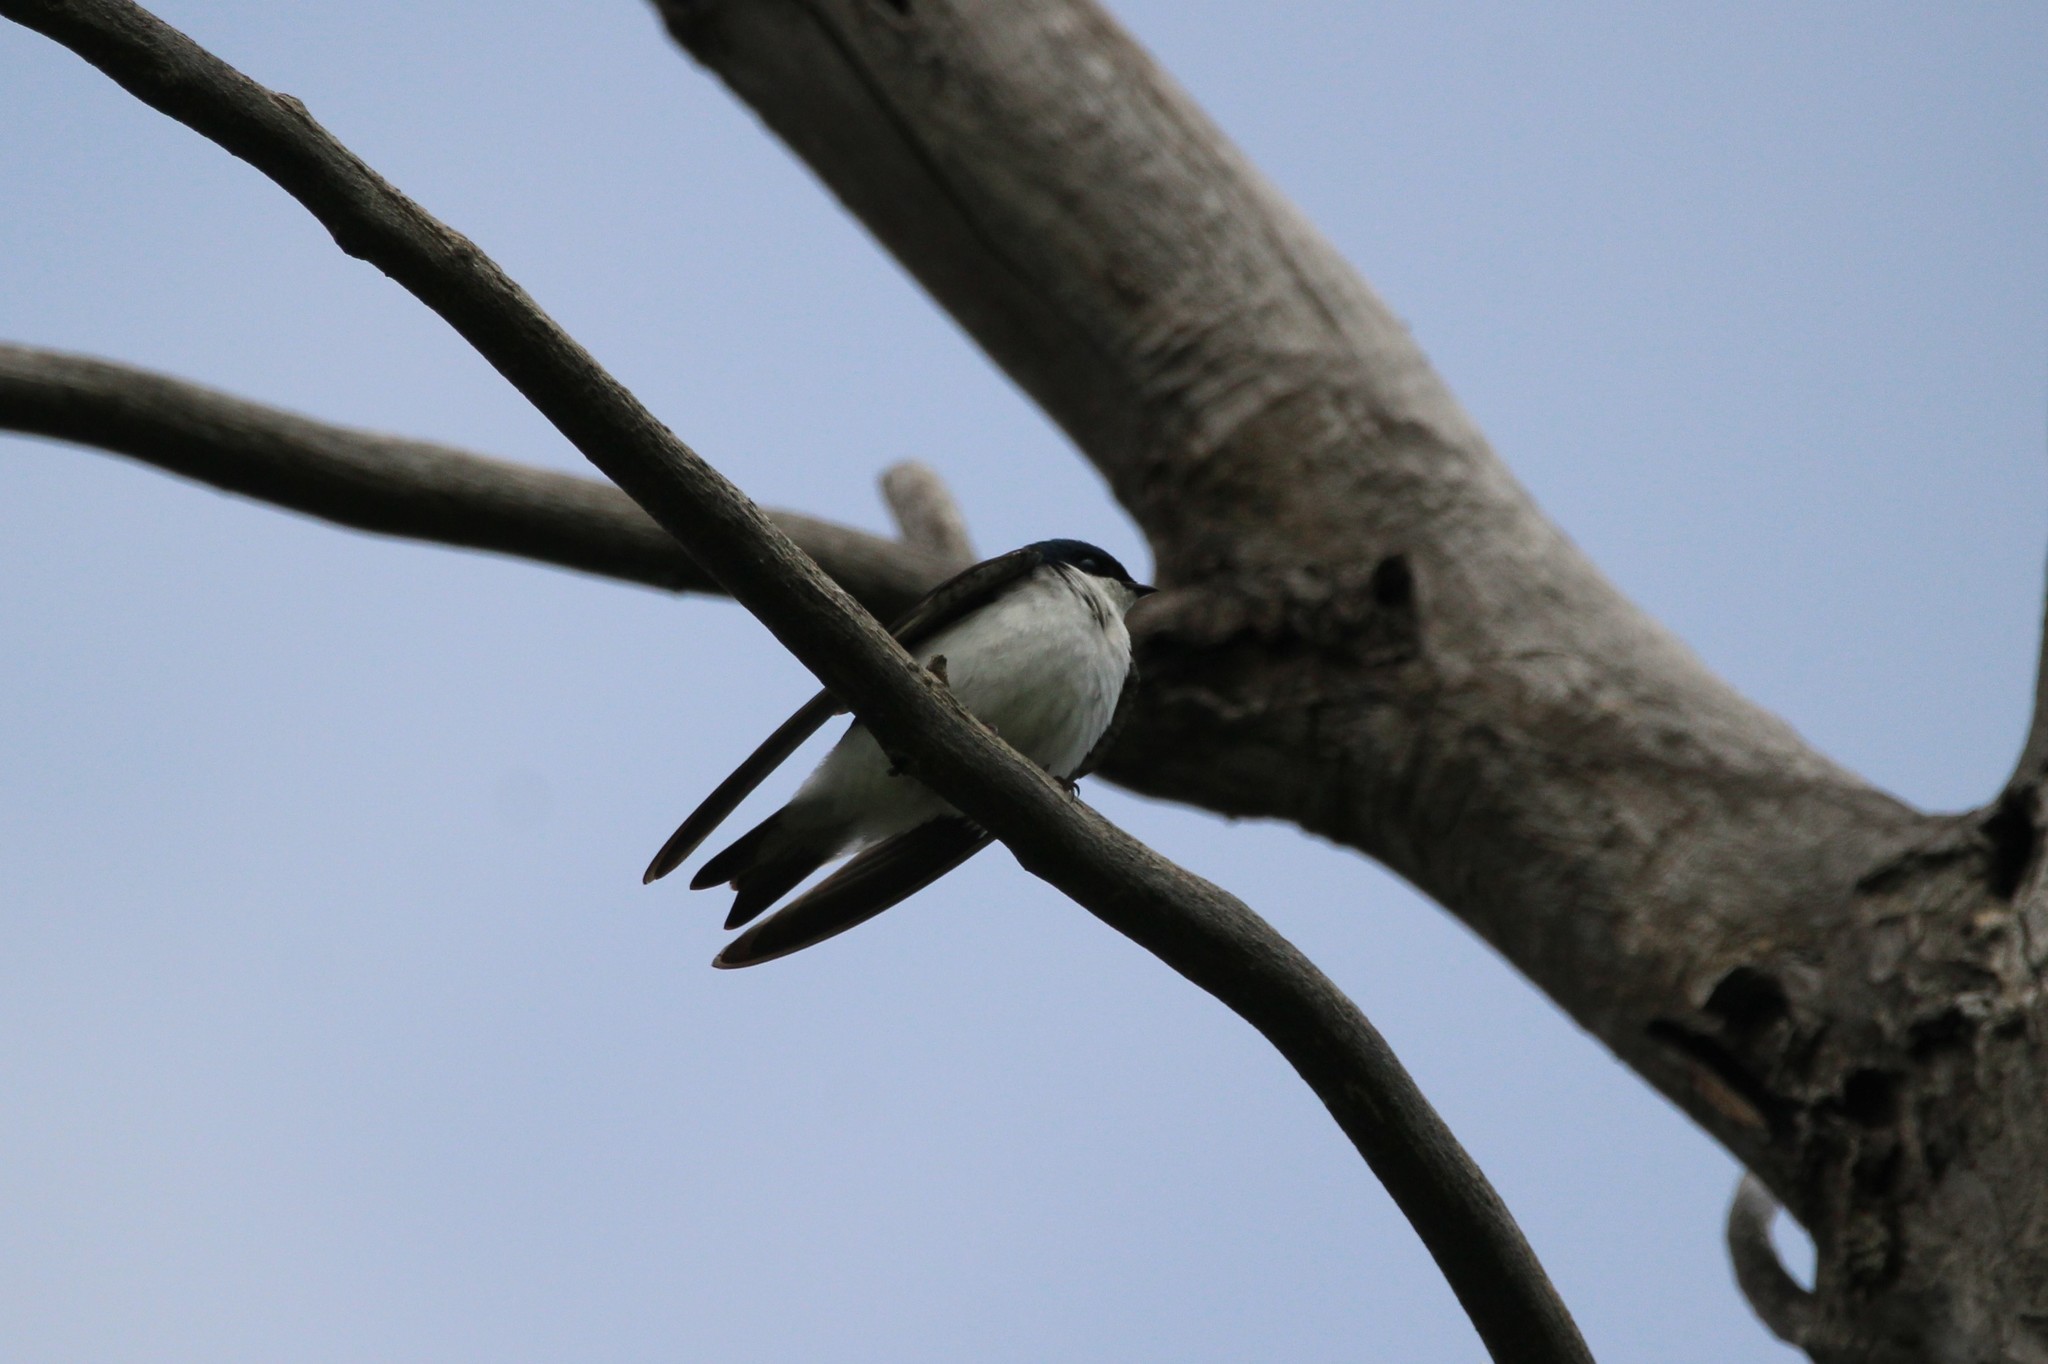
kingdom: Animalia
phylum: Chordata
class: Aves
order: Passeriformes
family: Hirundinidae
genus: Tachycineta
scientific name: Tachycineta bicolor
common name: Tree swallow
